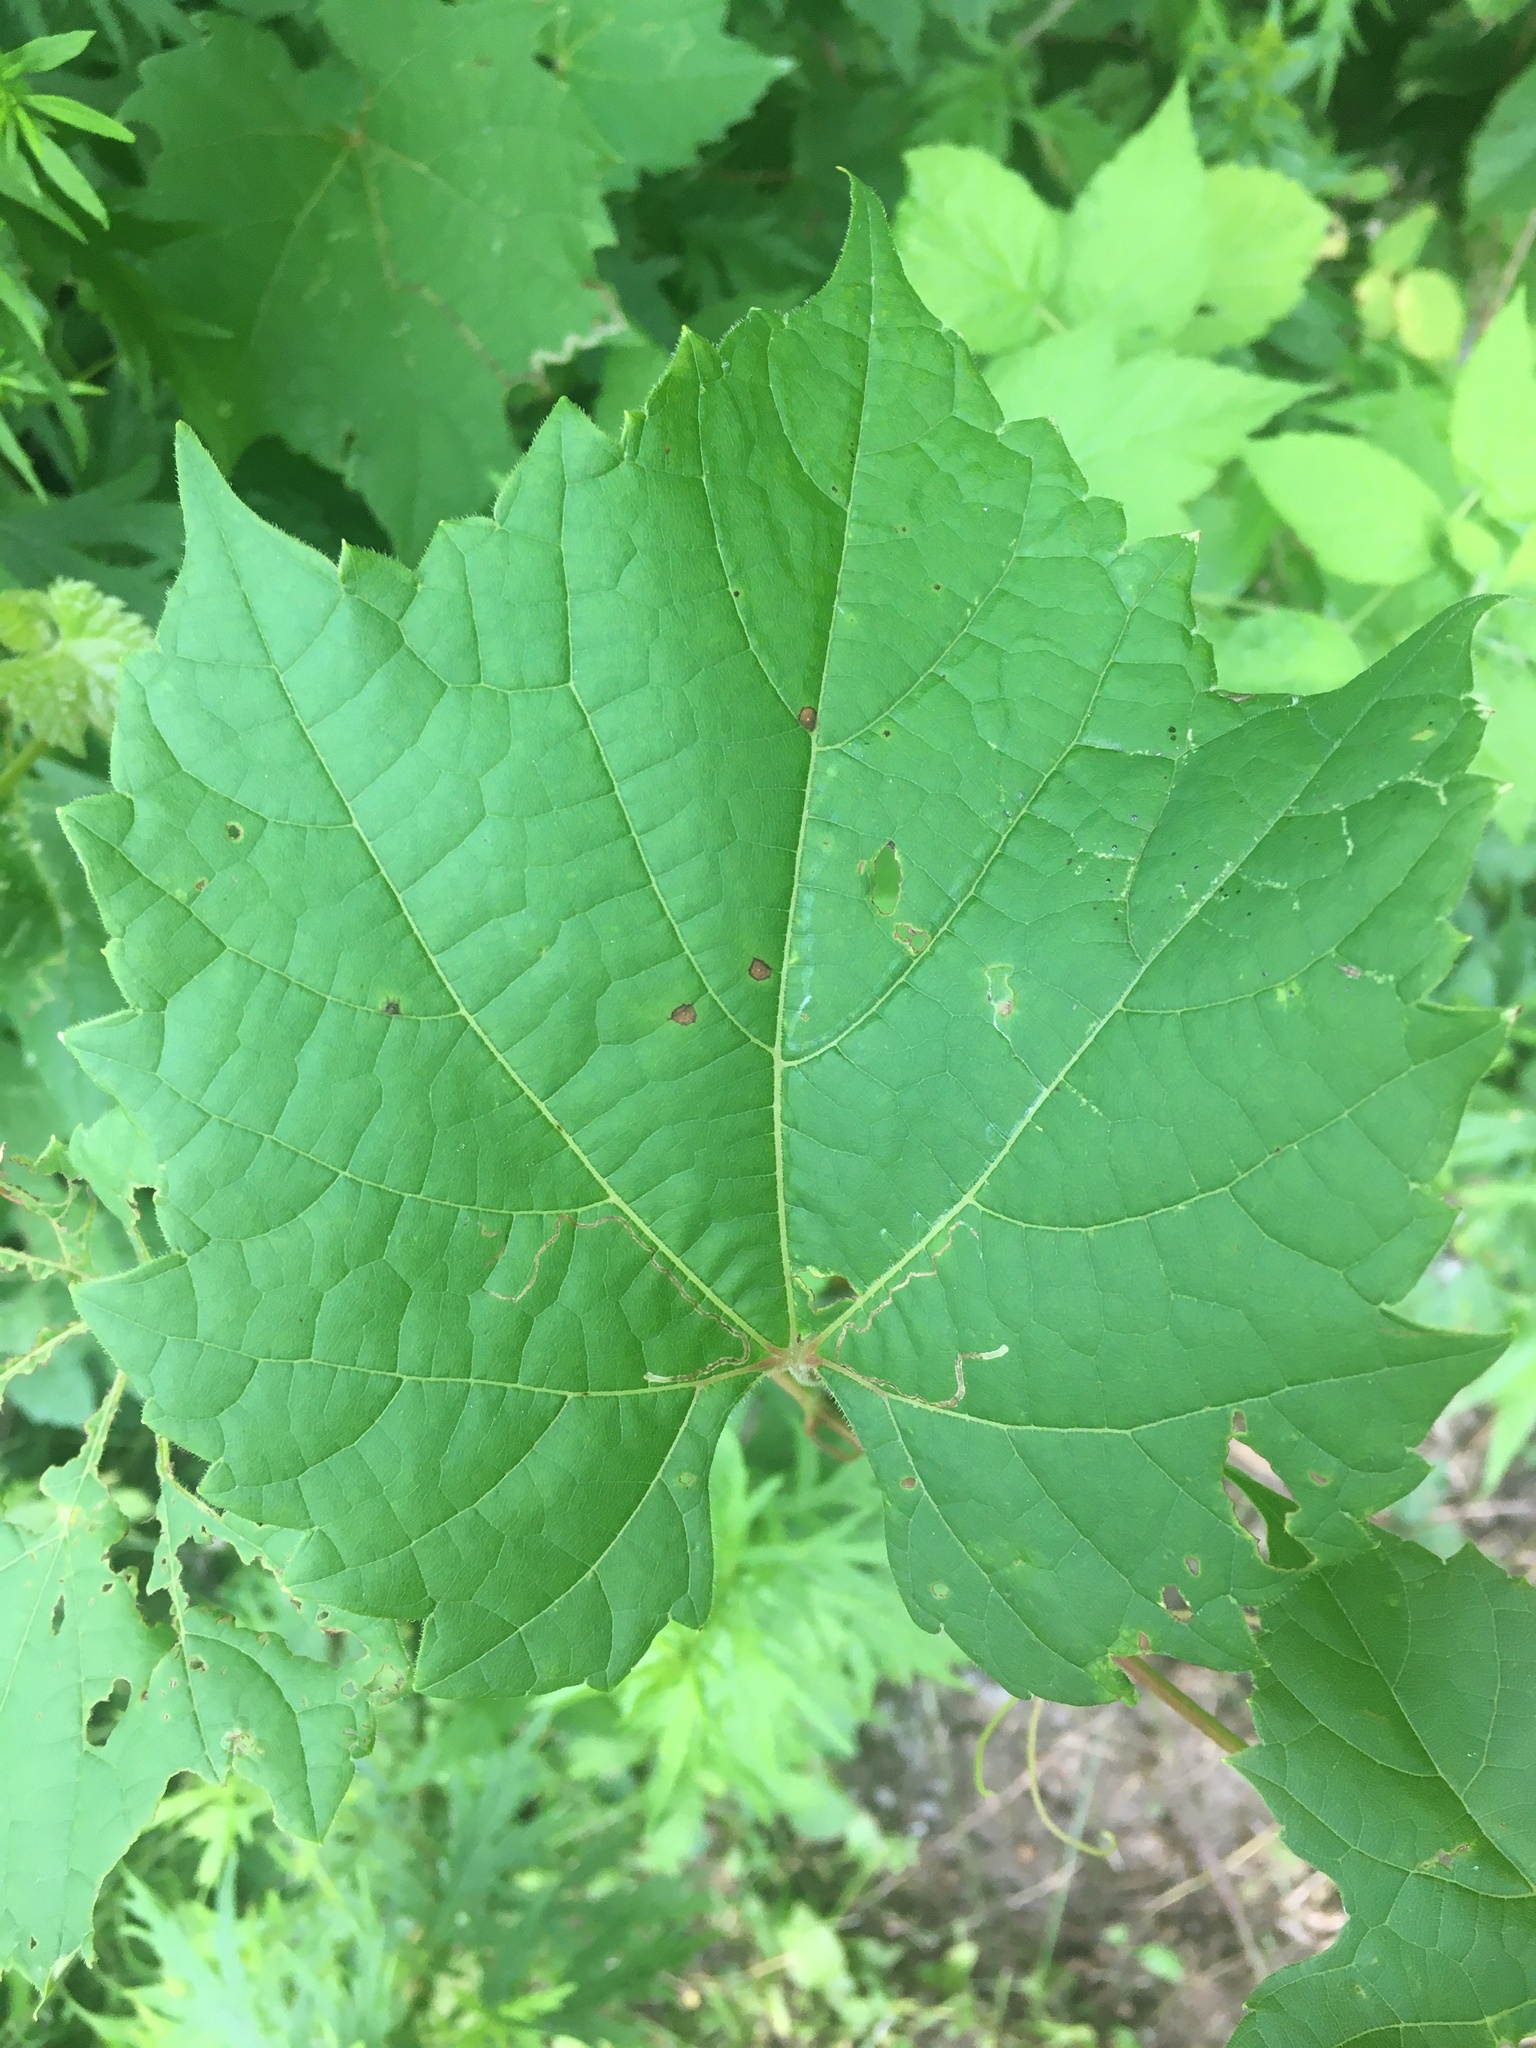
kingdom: Plantae
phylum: Tracheophyta
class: Magnoliopsida
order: Vitales
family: Vitaceae
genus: Vitis
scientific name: Vitis riparia
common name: Frost grape
